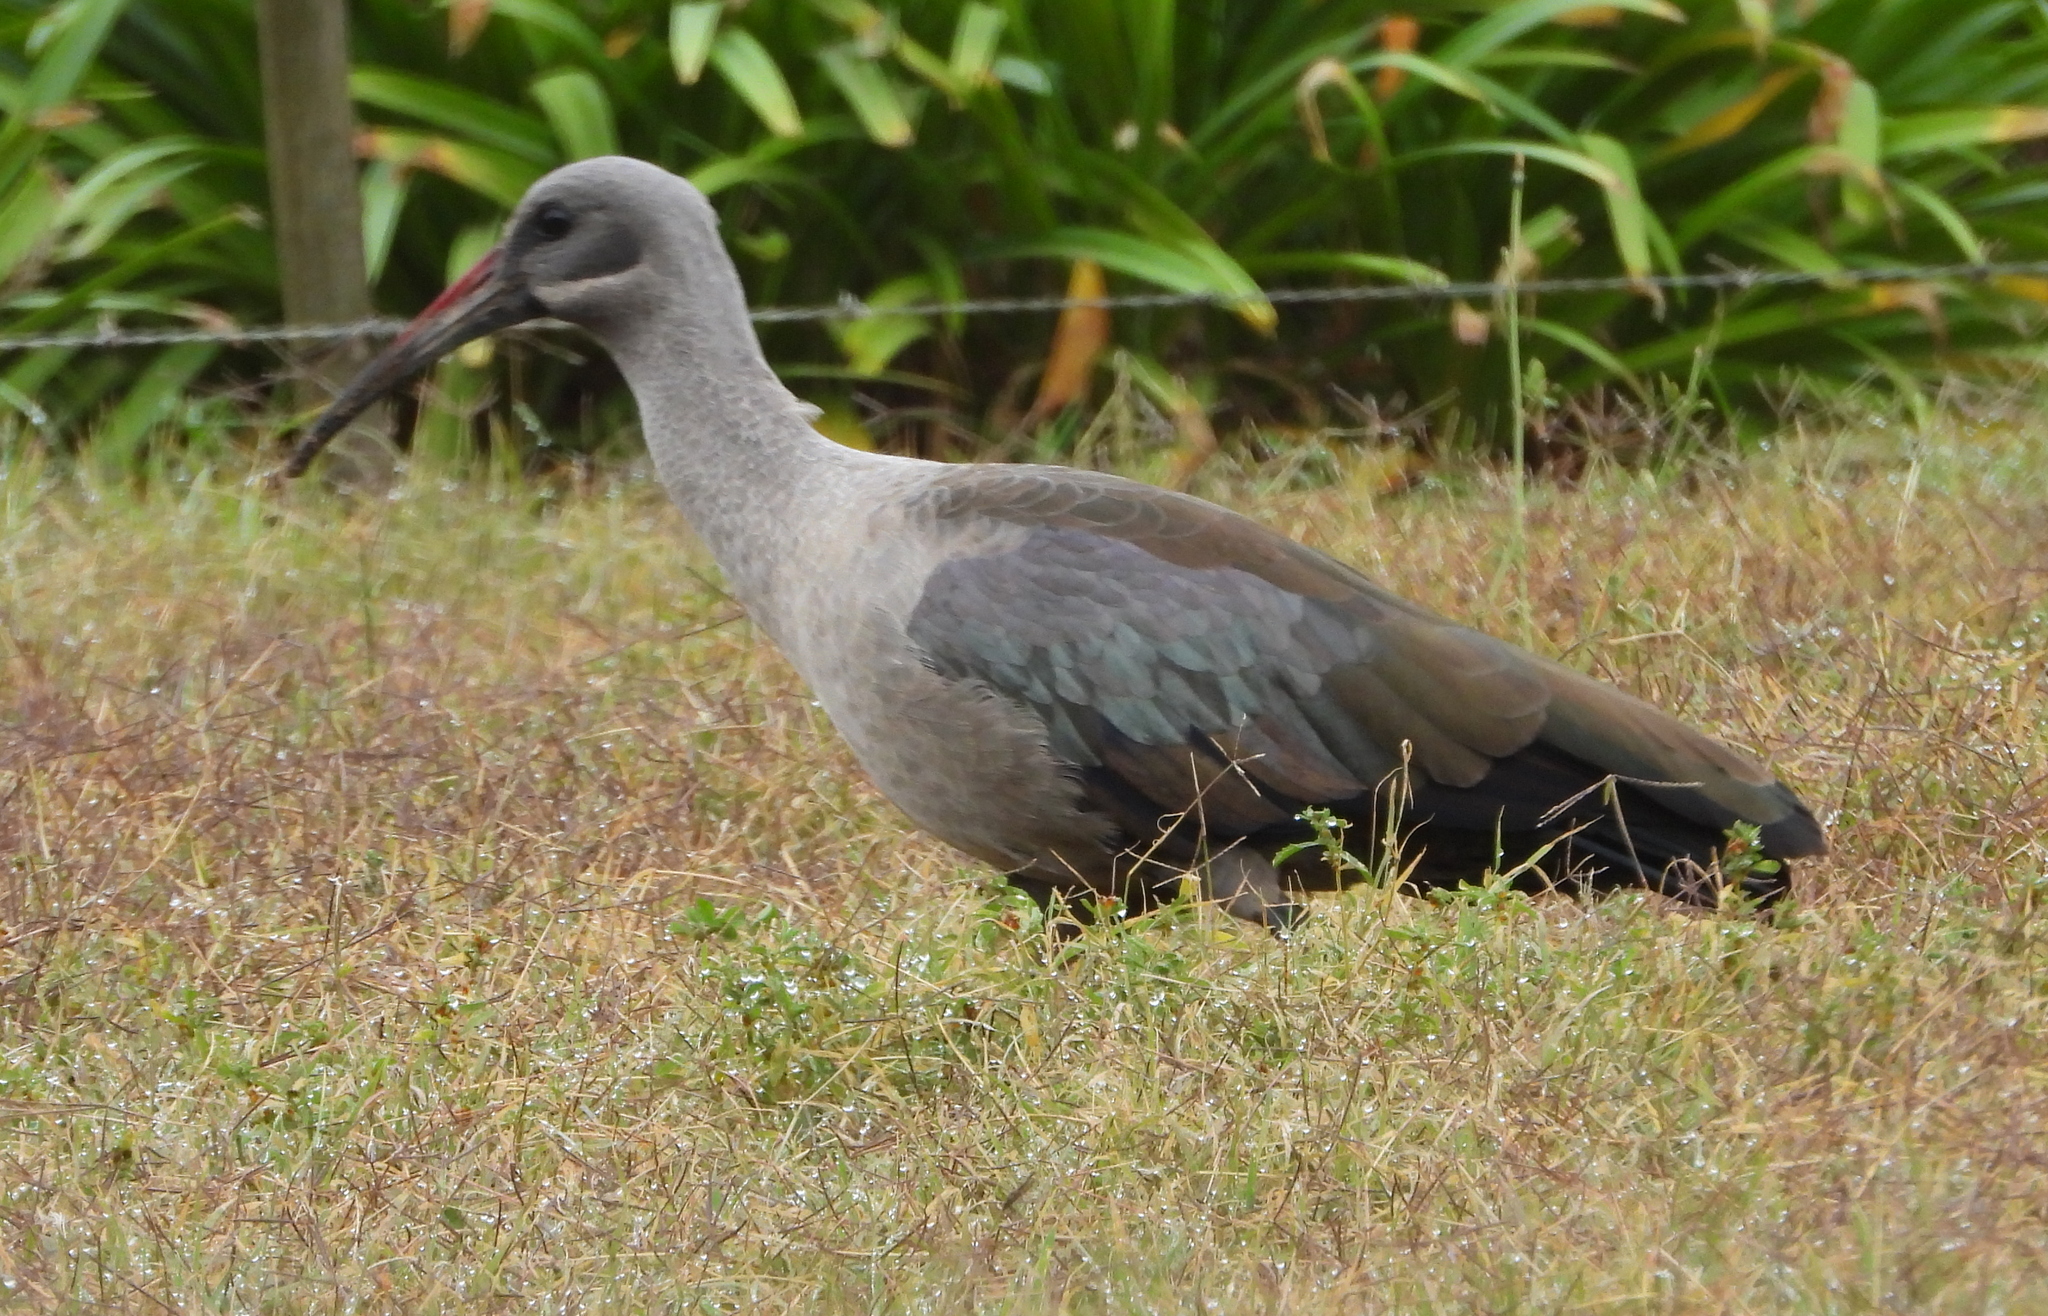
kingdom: Animalia
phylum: Chordata
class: Aves
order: Pelecaniformes
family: Threskiornithidae
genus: Bostrychia
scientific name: Bostrychia hagedash
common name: Hadada ibis
